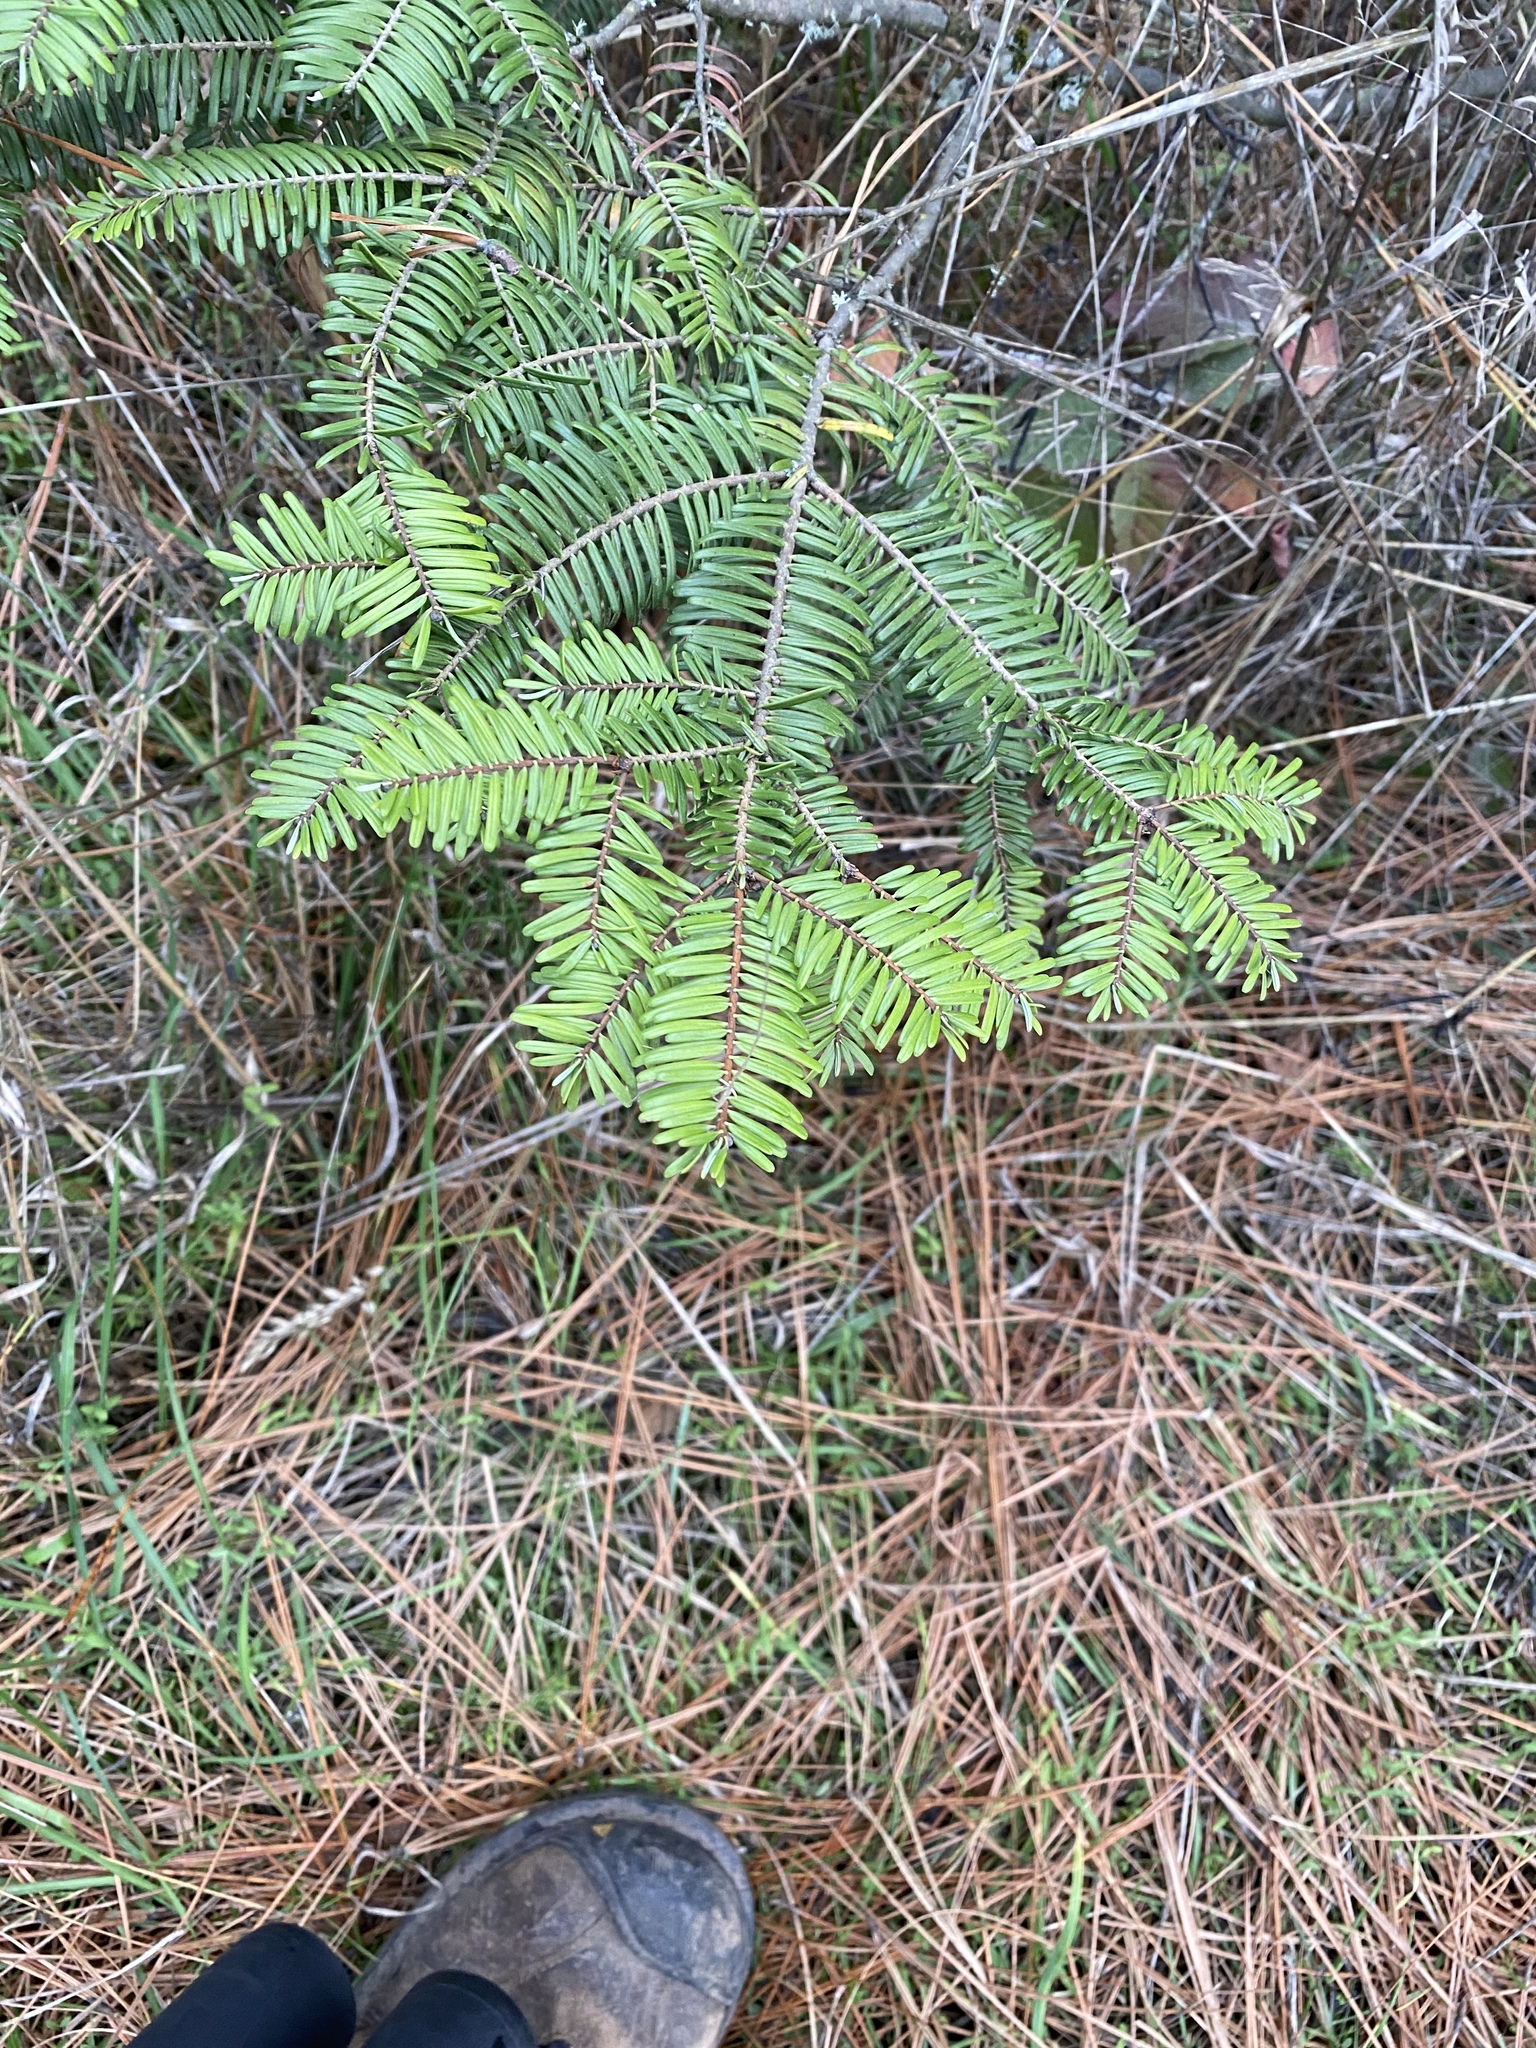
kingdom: Plantae
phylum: Tracheophyta
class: Pinopsida
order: Pinales
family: Pinaceae
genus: Abies
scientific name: Abies grandis
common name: Giant fir
